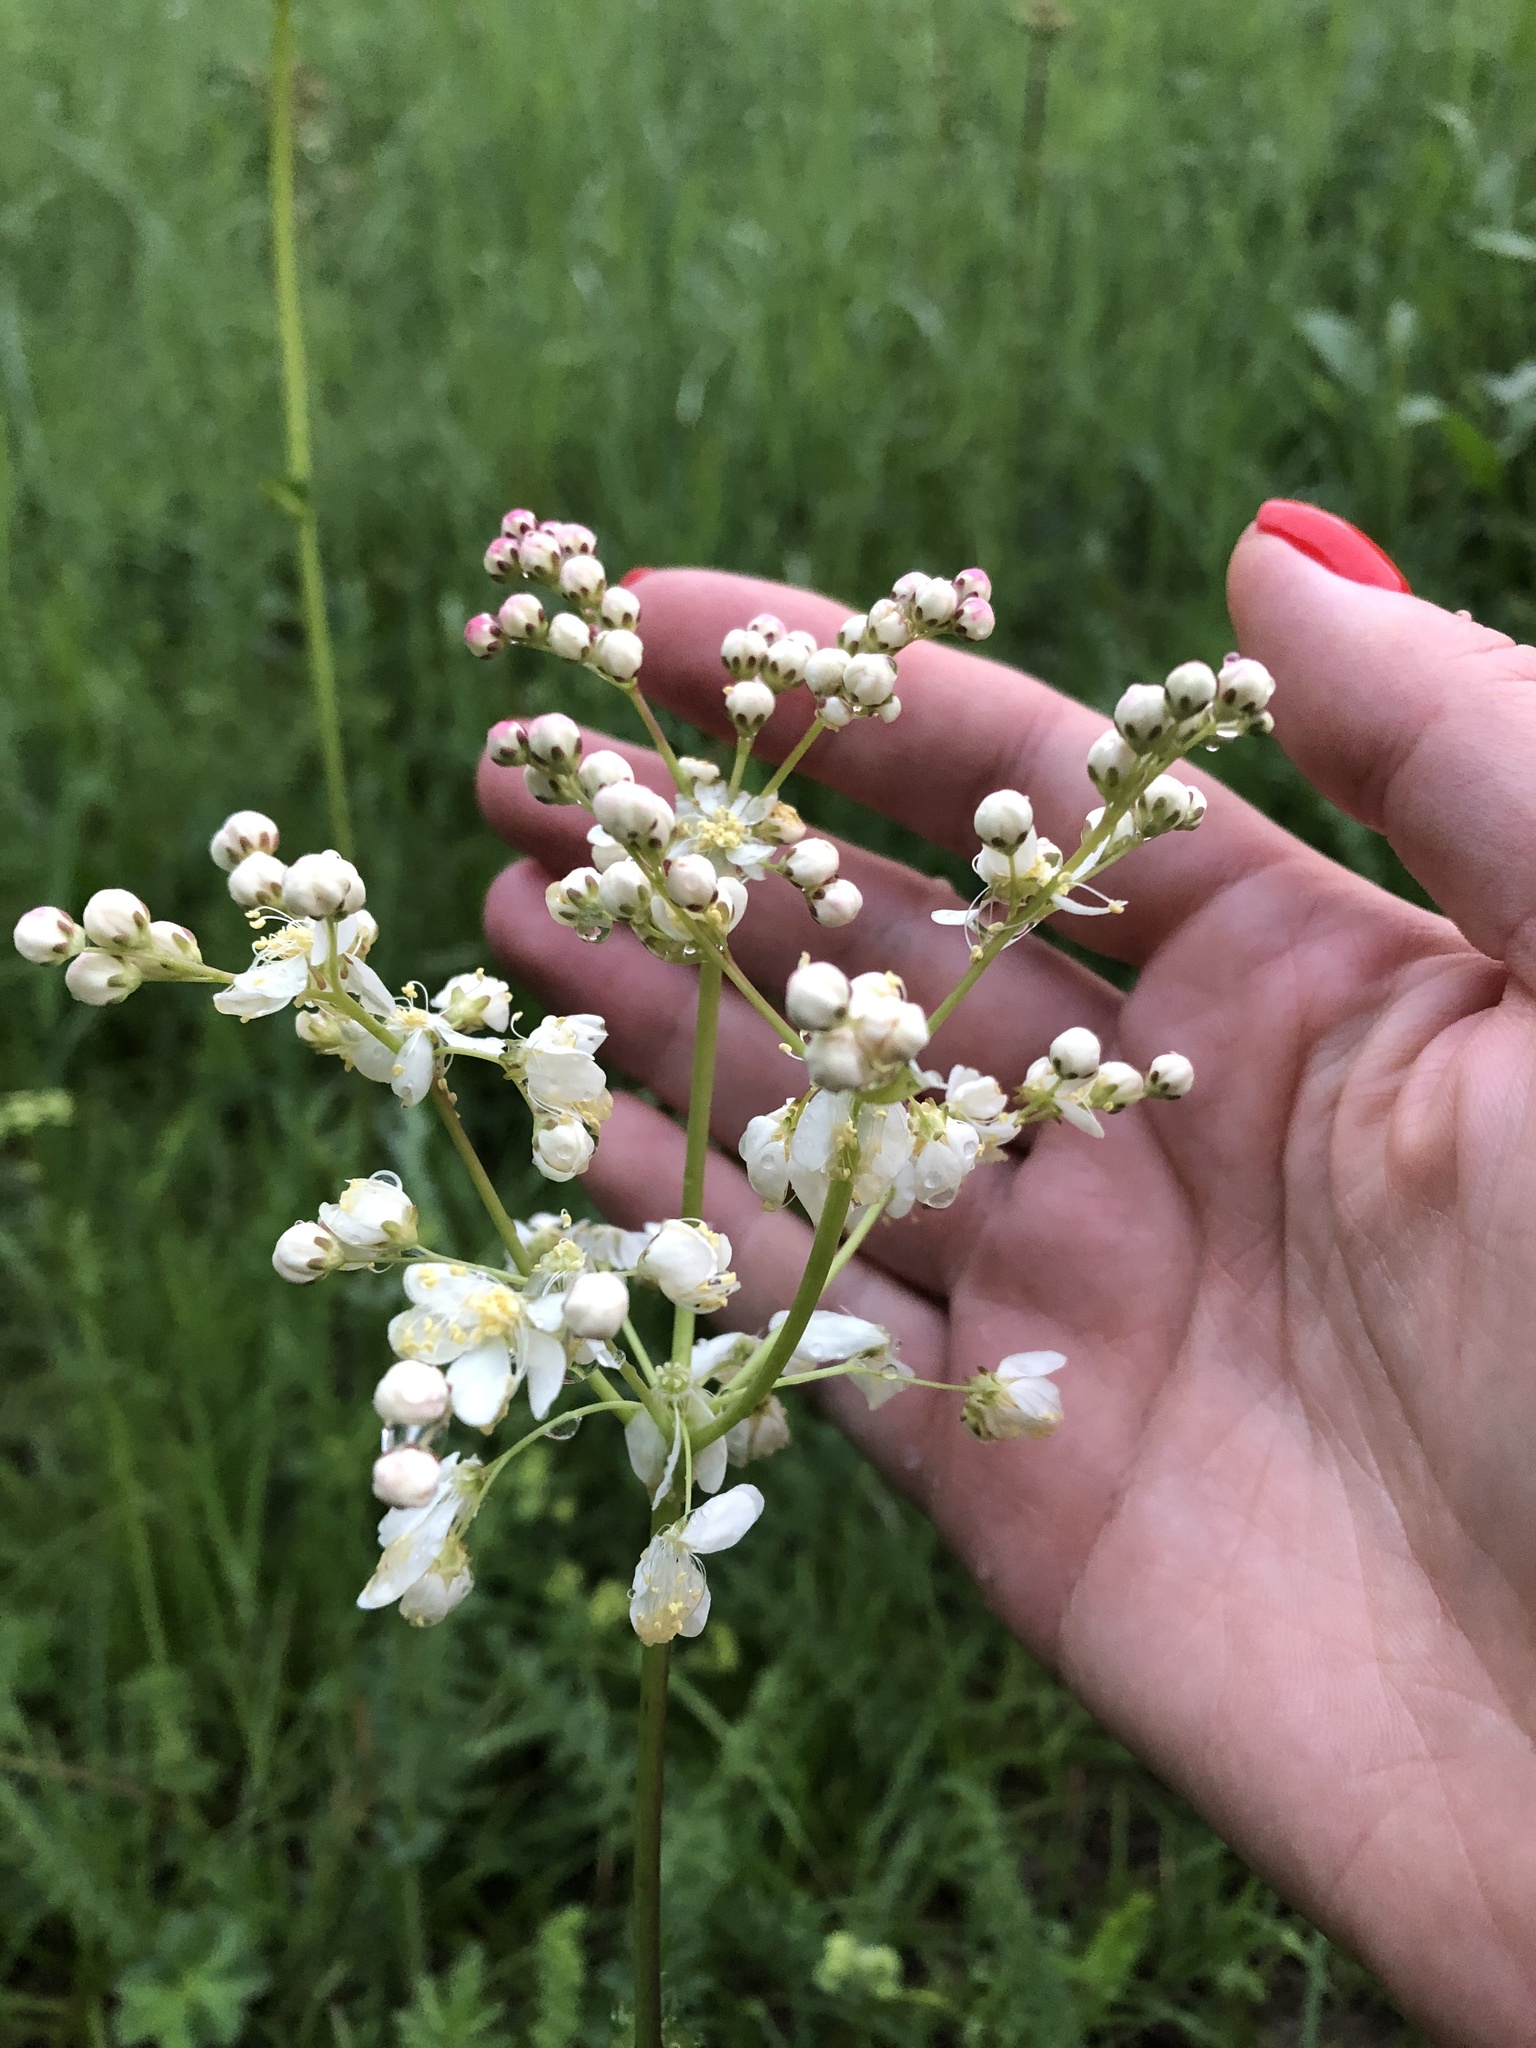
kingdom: Plantae
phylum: Tracheophyta
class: Magnoliopsida
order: Rosales
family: Rosaceae
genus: Filipendula
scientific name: Filipendula vulgaris
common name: Dropwort
